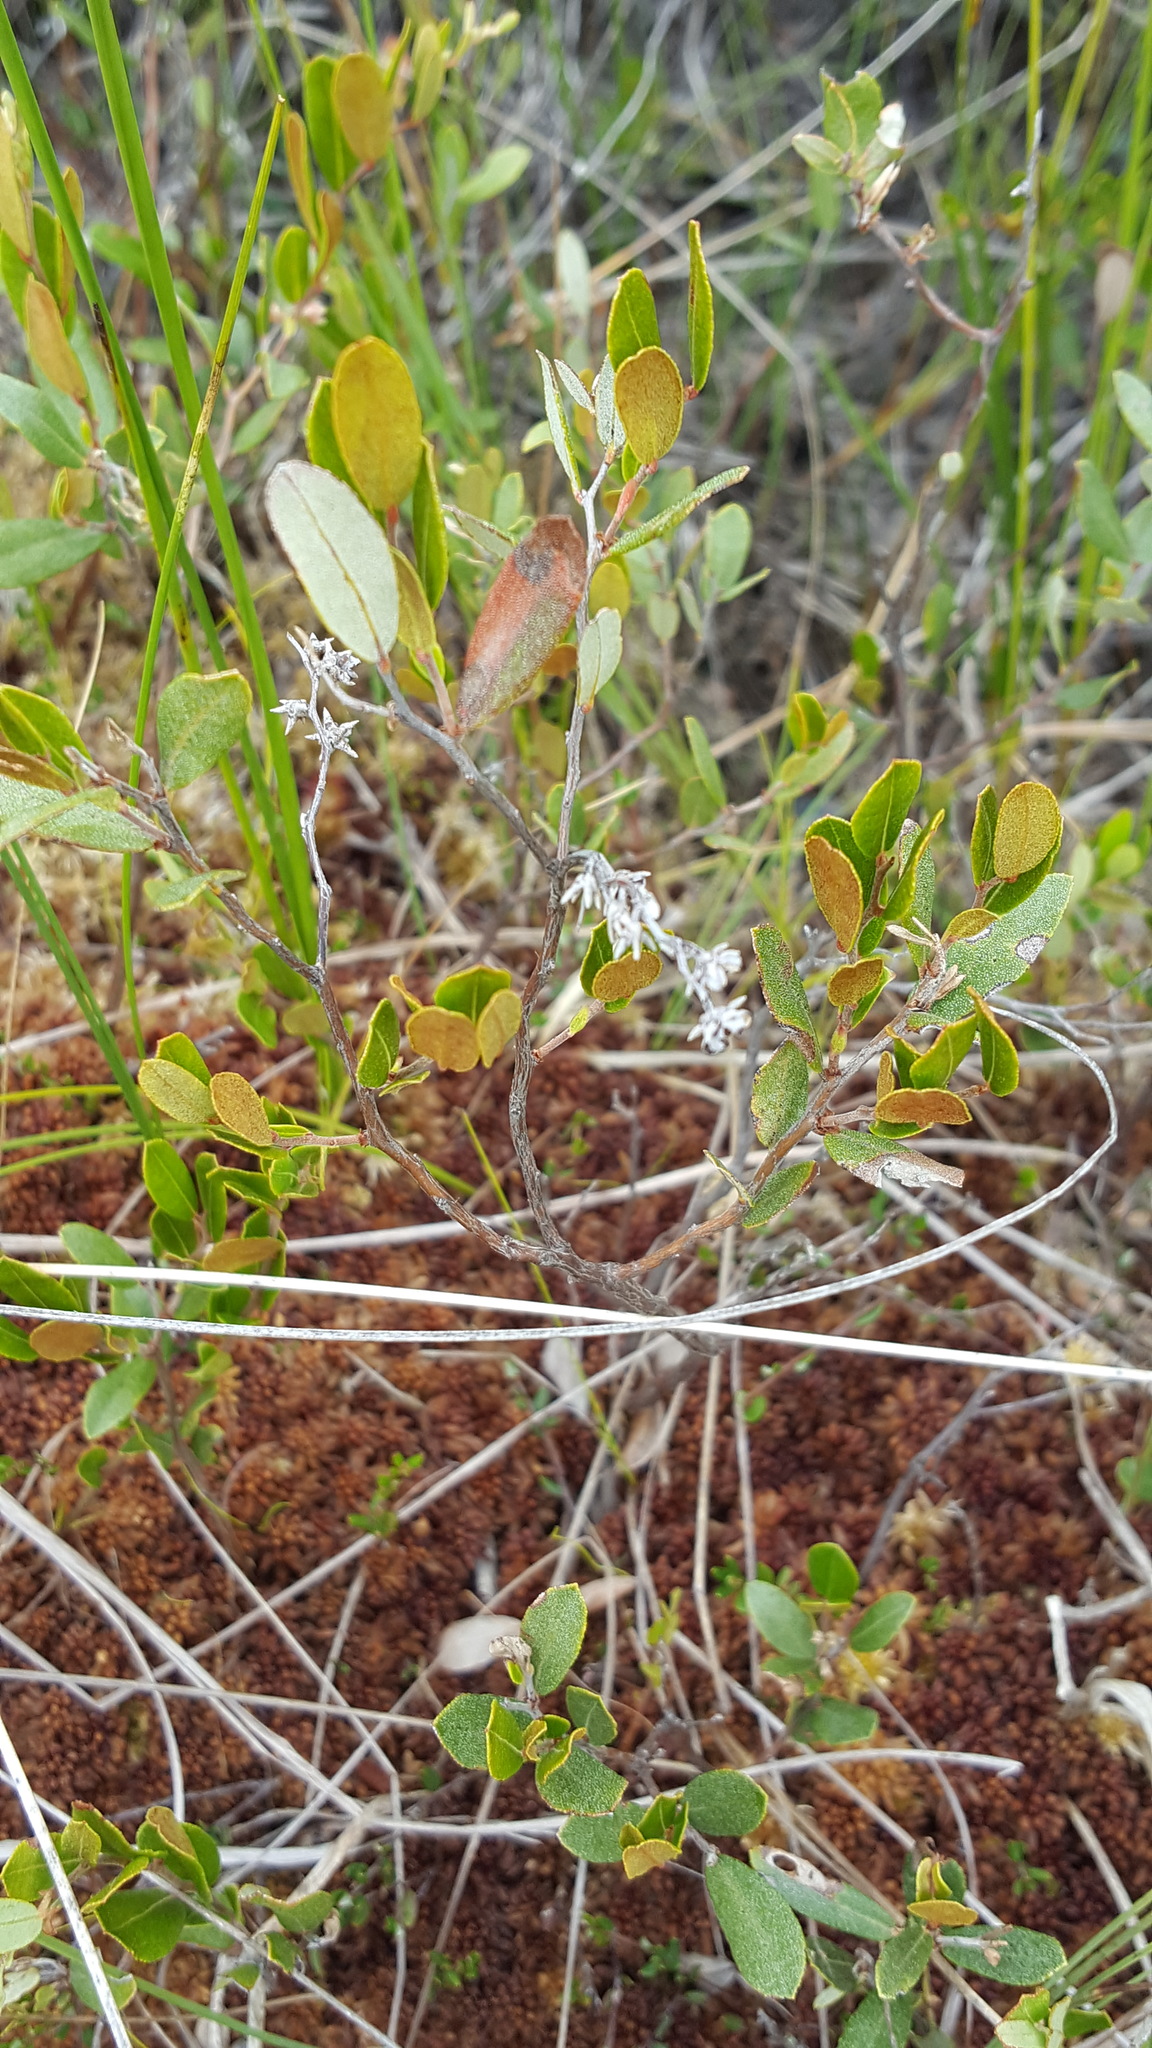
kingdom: Plantae
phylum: Tracheophyta
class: Magnoliopsida
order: Ericales
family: Ericaceae
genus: Chamaedaphne
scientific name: Chamaedaphne calyculata
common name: Leatherleaf
